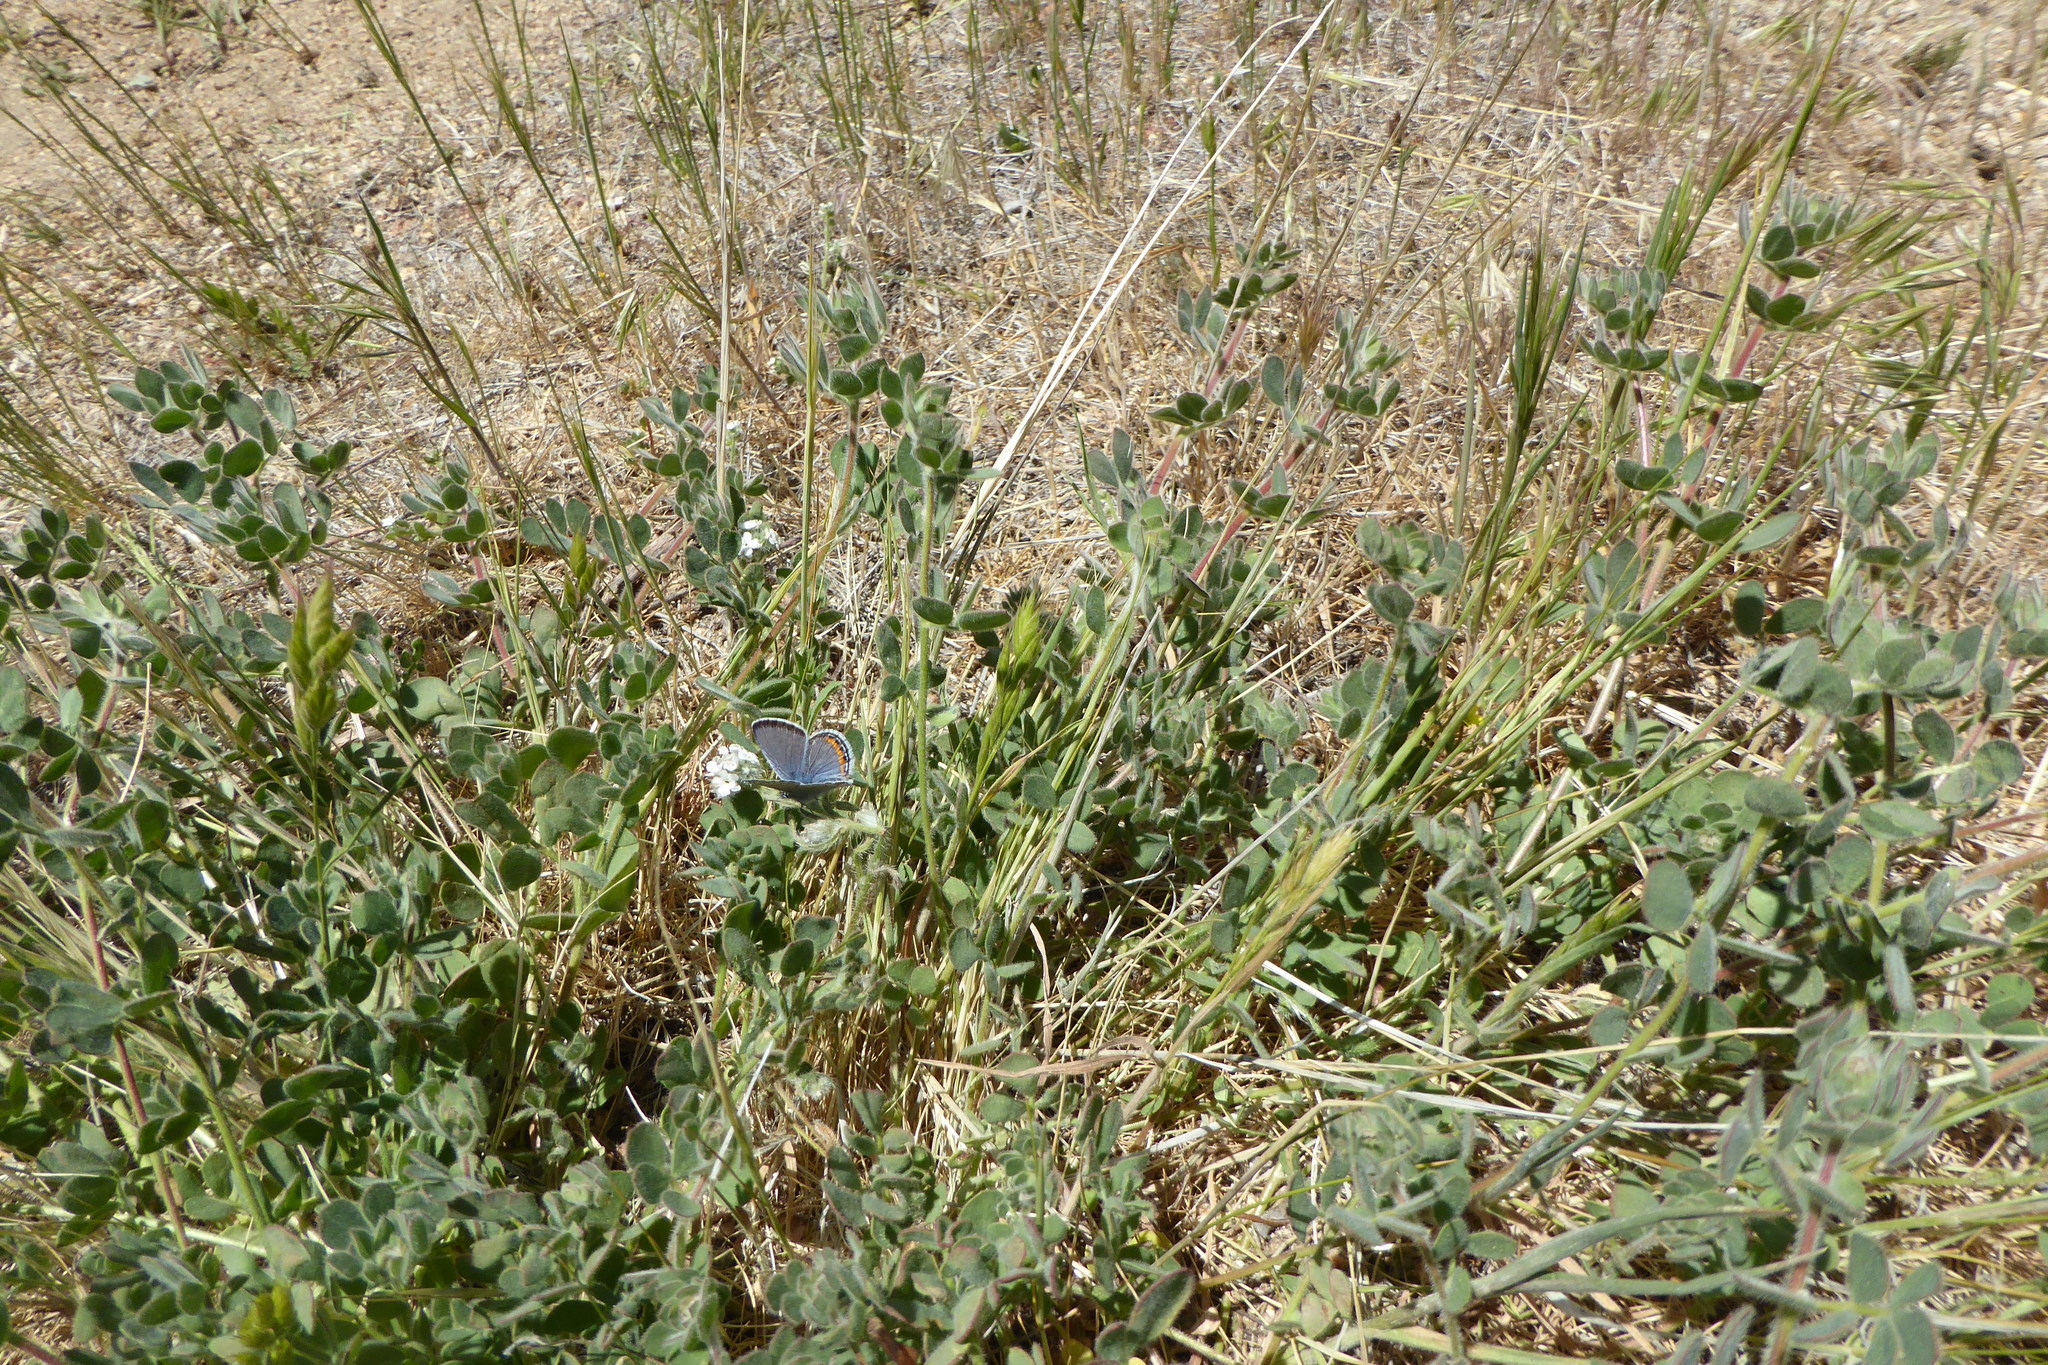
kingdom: Animalia
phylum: Arthropoda
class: Insecta
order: Lepidoptera
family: Lycaenidae
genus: Icaricia
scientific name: Icaricia lupini
